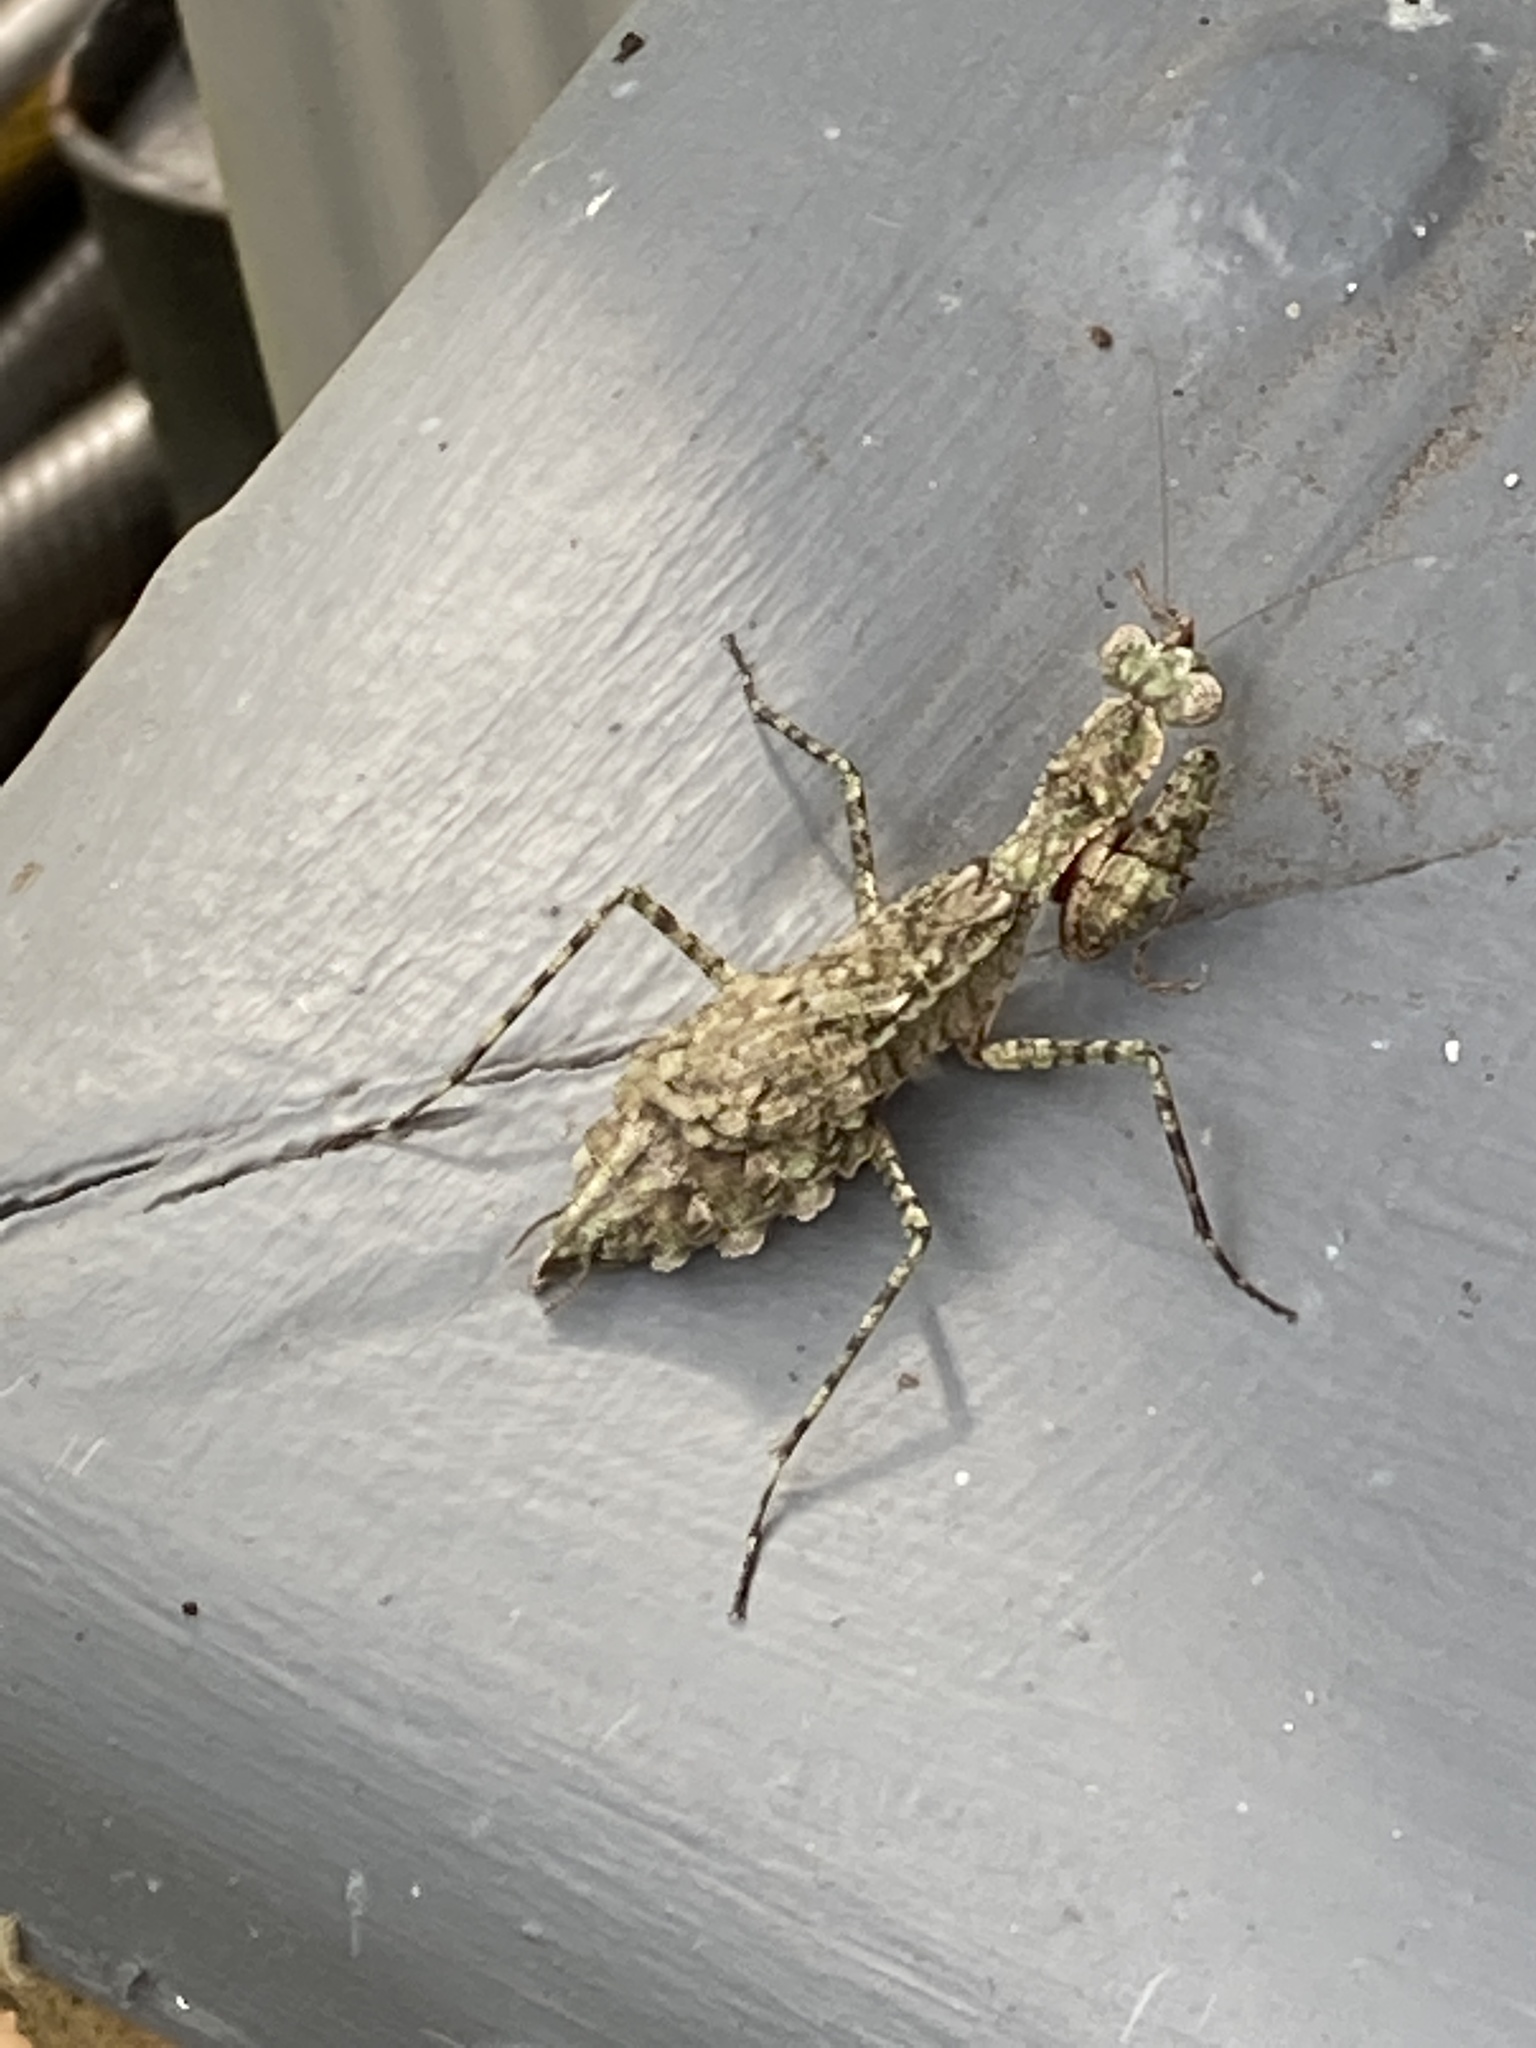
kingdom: Animalia
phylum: Arthropoda
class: Insecta
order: Mantodea
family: Epaphroditidae
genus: Gonatista
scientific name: Gonatista grisea
